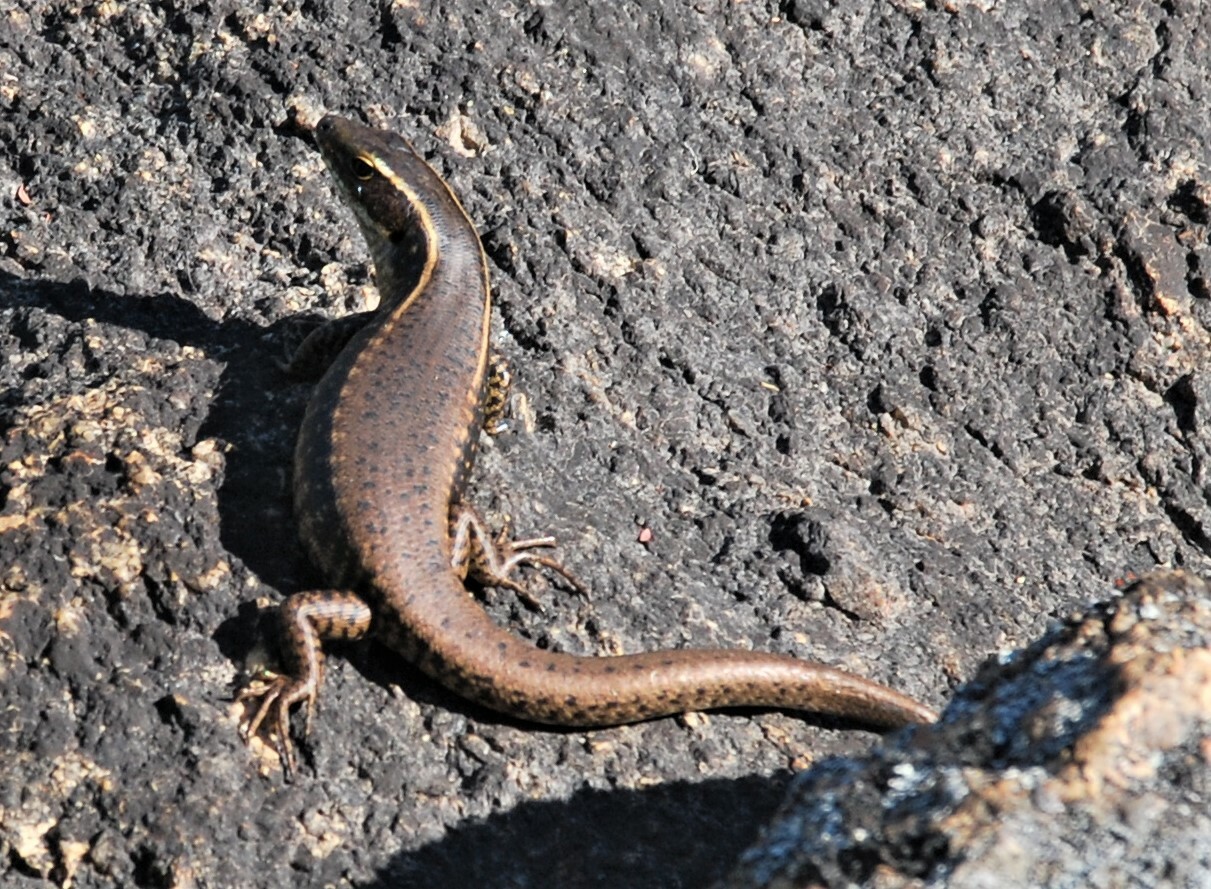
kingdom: Animalia
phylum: Chordata
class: Squamata
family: Scincidae
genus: Eulamprus
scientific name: Eulamprus quoyii
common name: Eastern water skink
